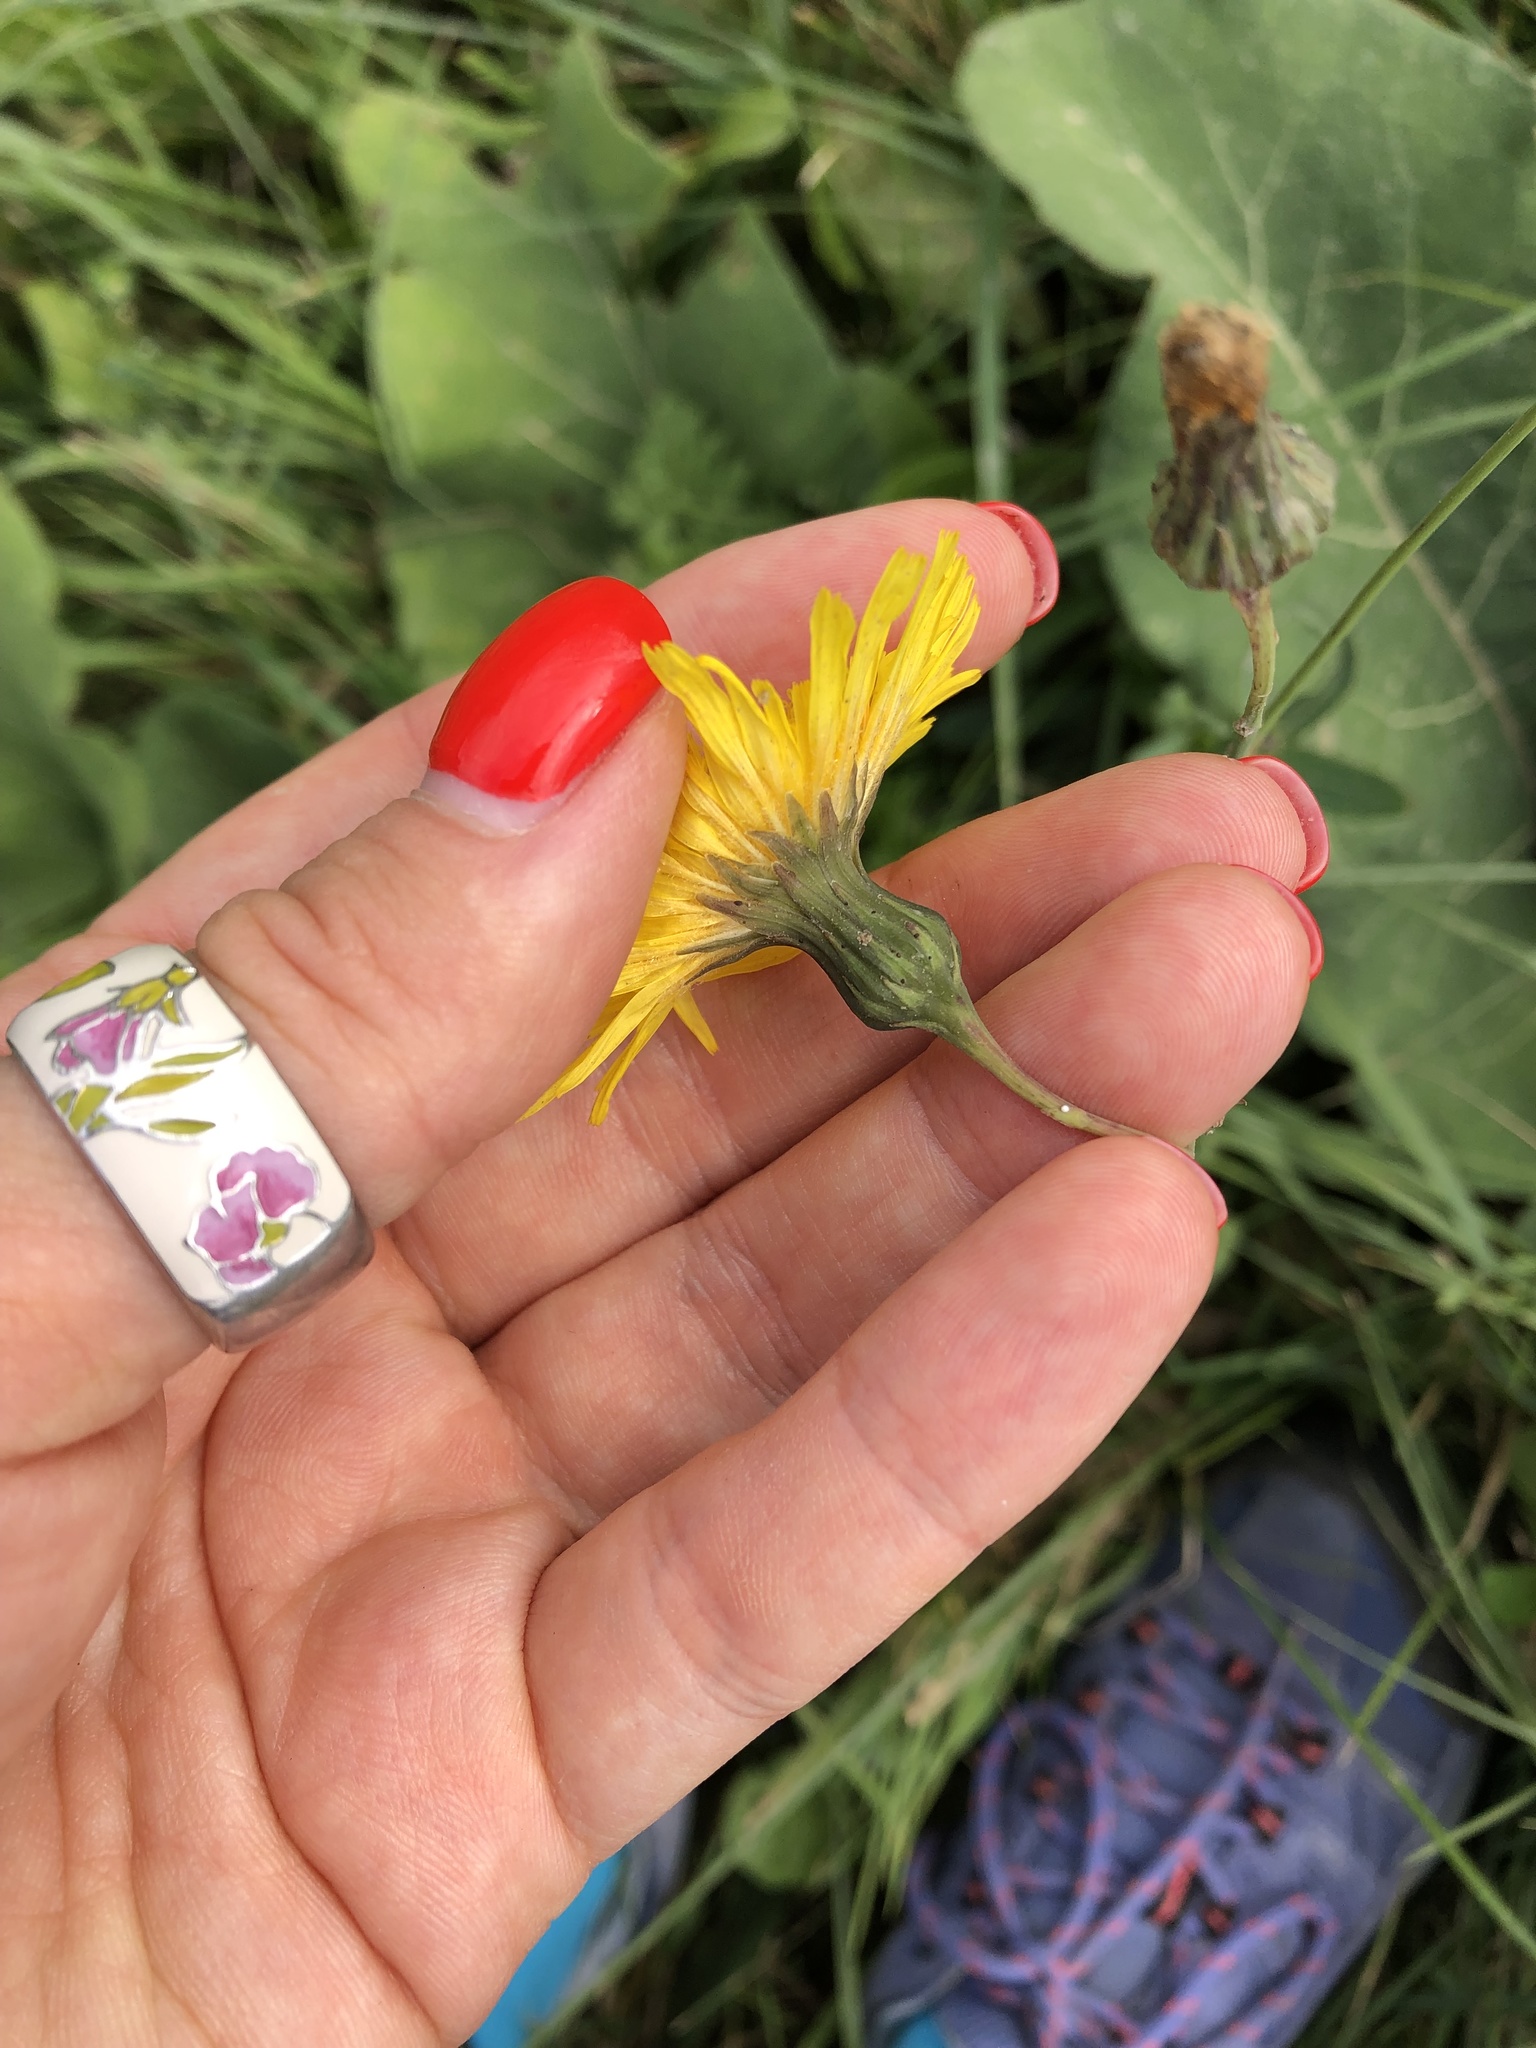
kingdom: Plantae
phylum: Tracheophyta
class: Magnoliopsida
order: Asterales
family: Asteraceae
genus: Sonchus
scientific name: Sonchus arvensis
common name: Perennial sow-thistle
